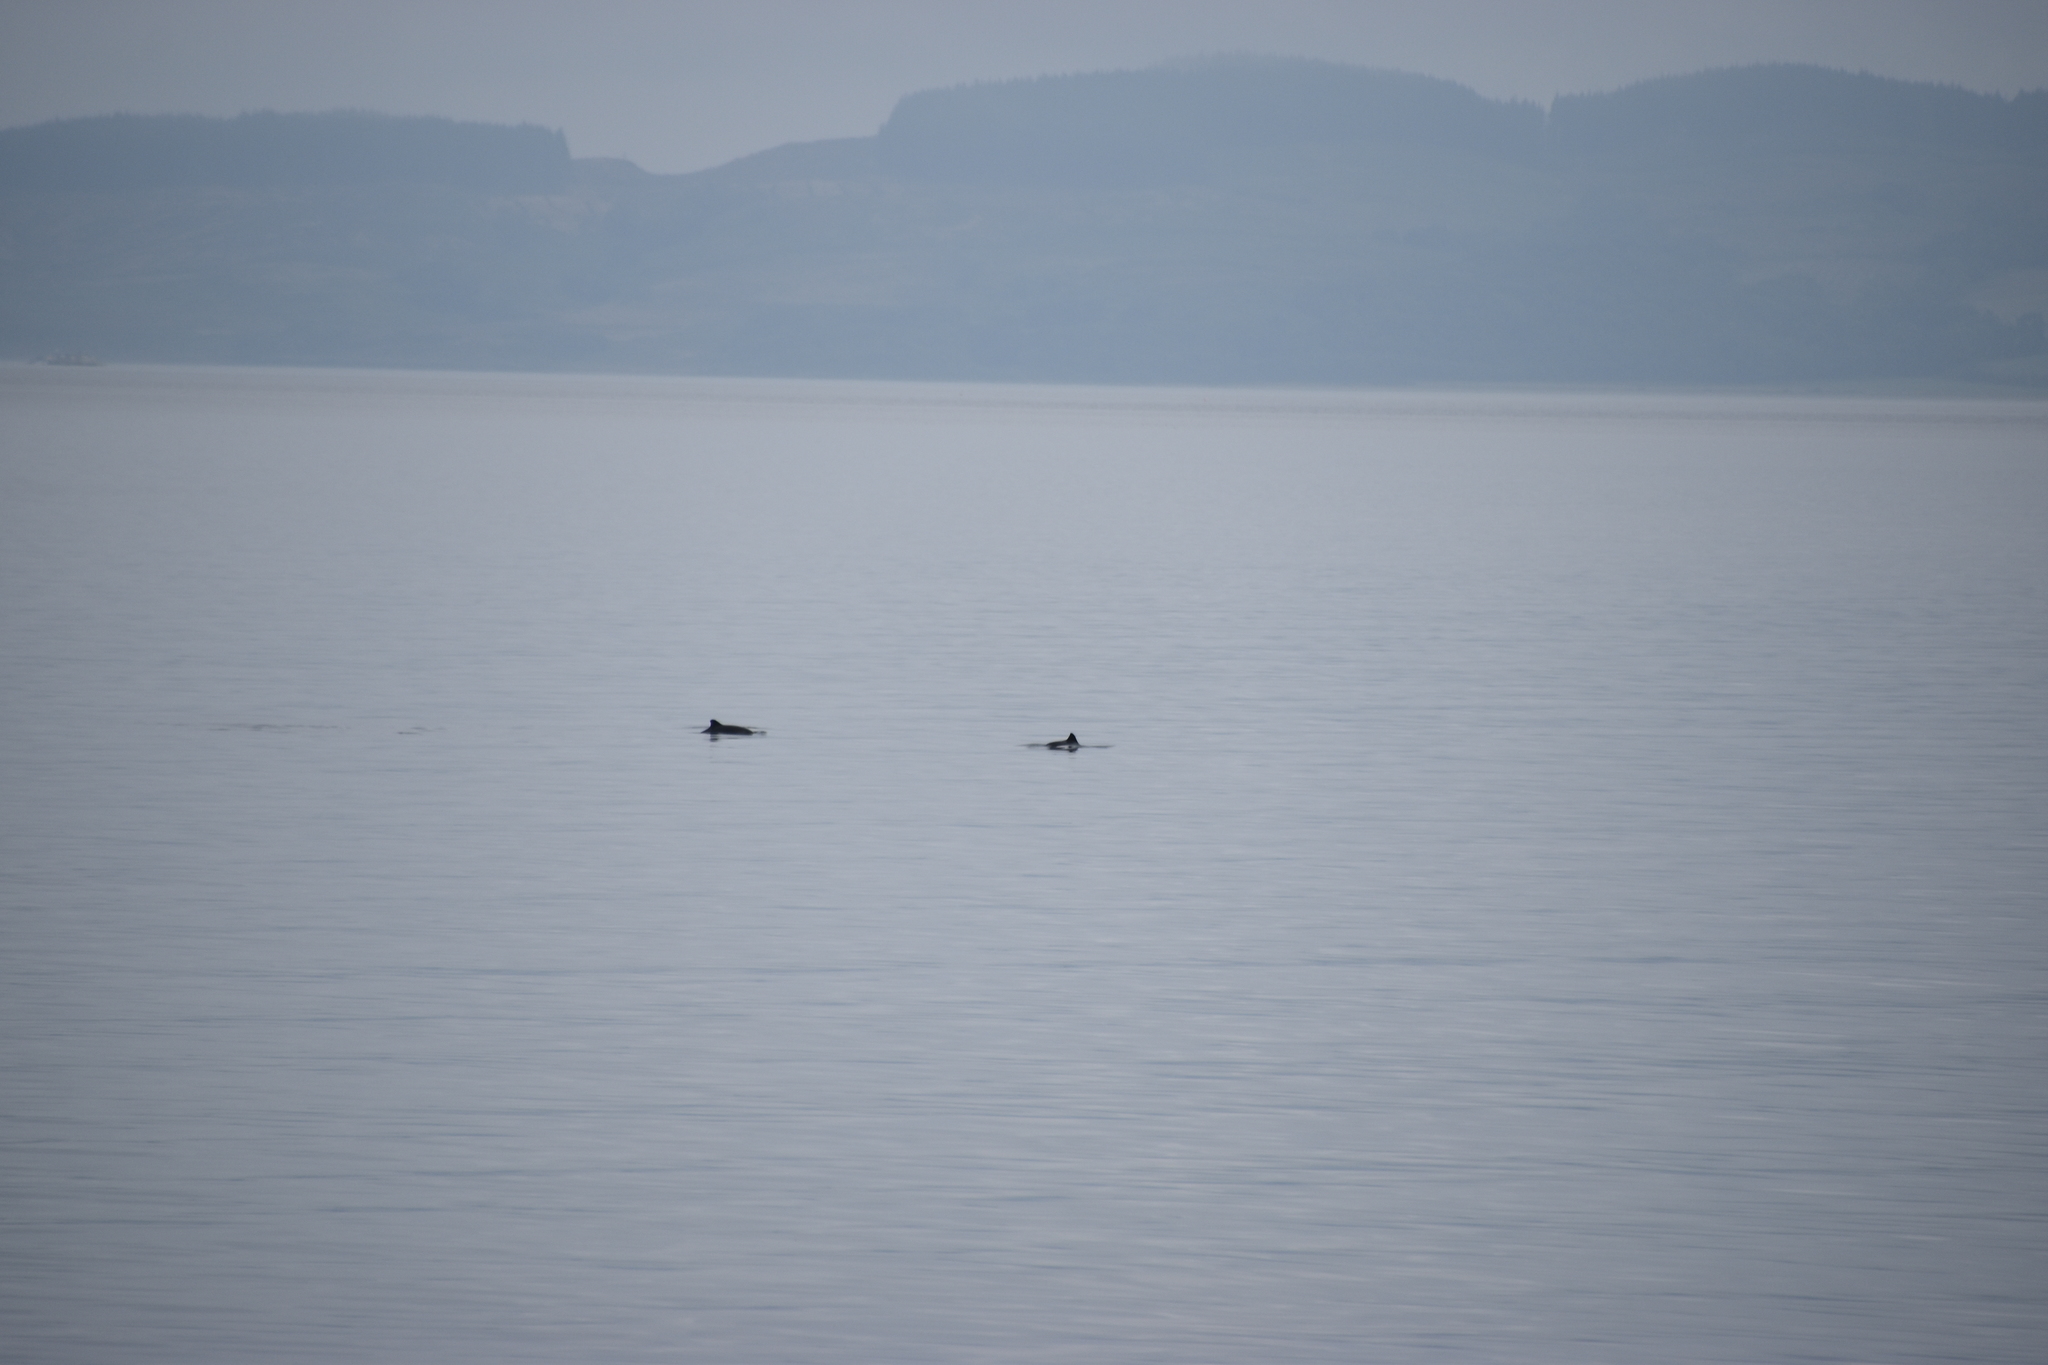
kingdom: Animalia
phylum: Chordata
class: Mammalia
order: Cetacea
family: Phocoenidae
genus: Phocoena
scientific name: Phocoena phocoena
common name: Harbor porpoise
